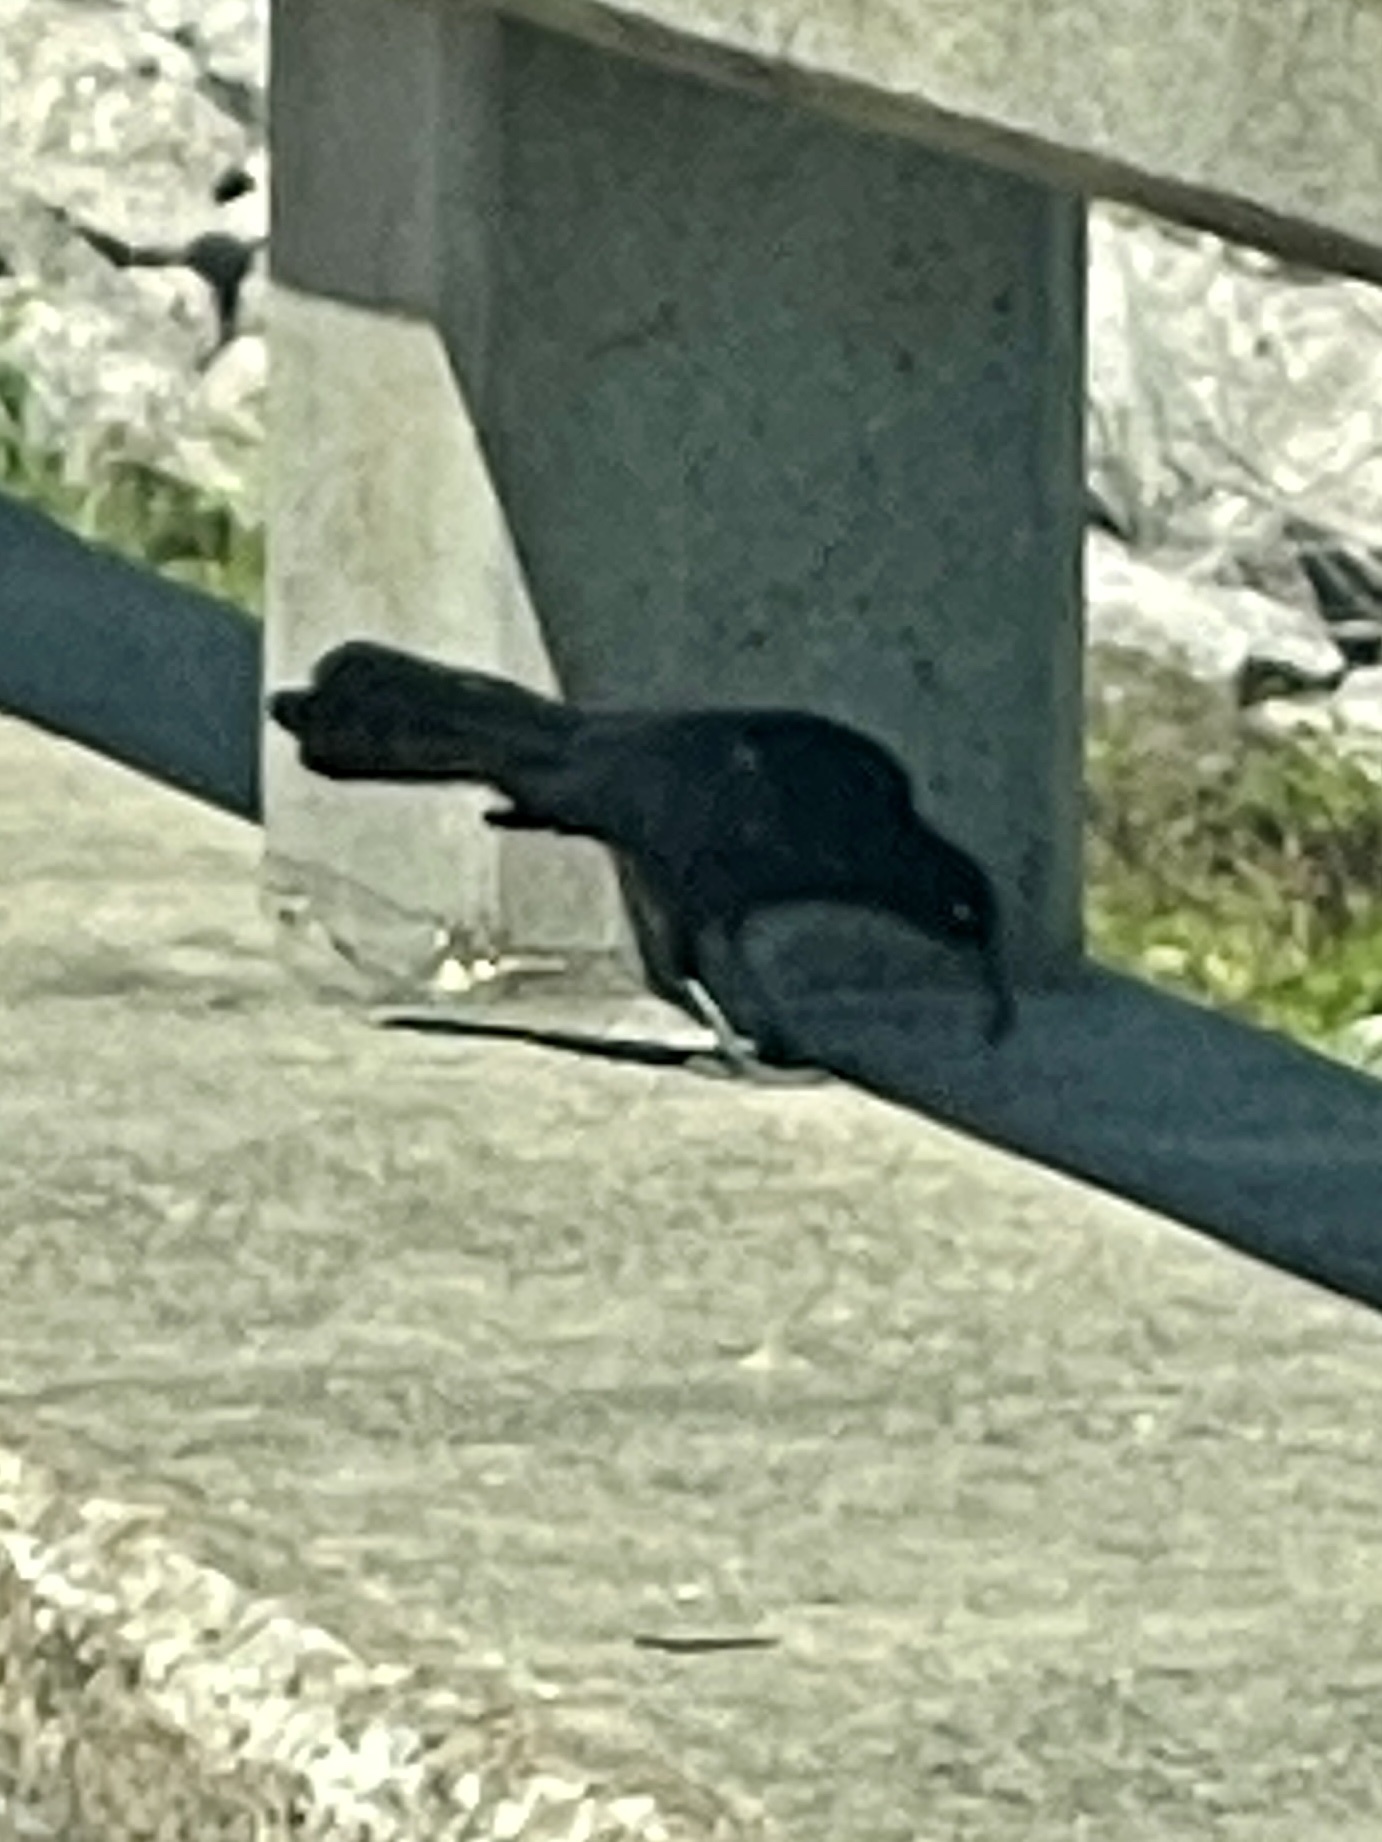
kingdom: Animalia
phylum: Chordata
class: Aves
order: Passeriformes
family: Icteridae
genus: Quiscalus
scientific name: Quiscalus mexicanus
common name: Great-tailed grackle
